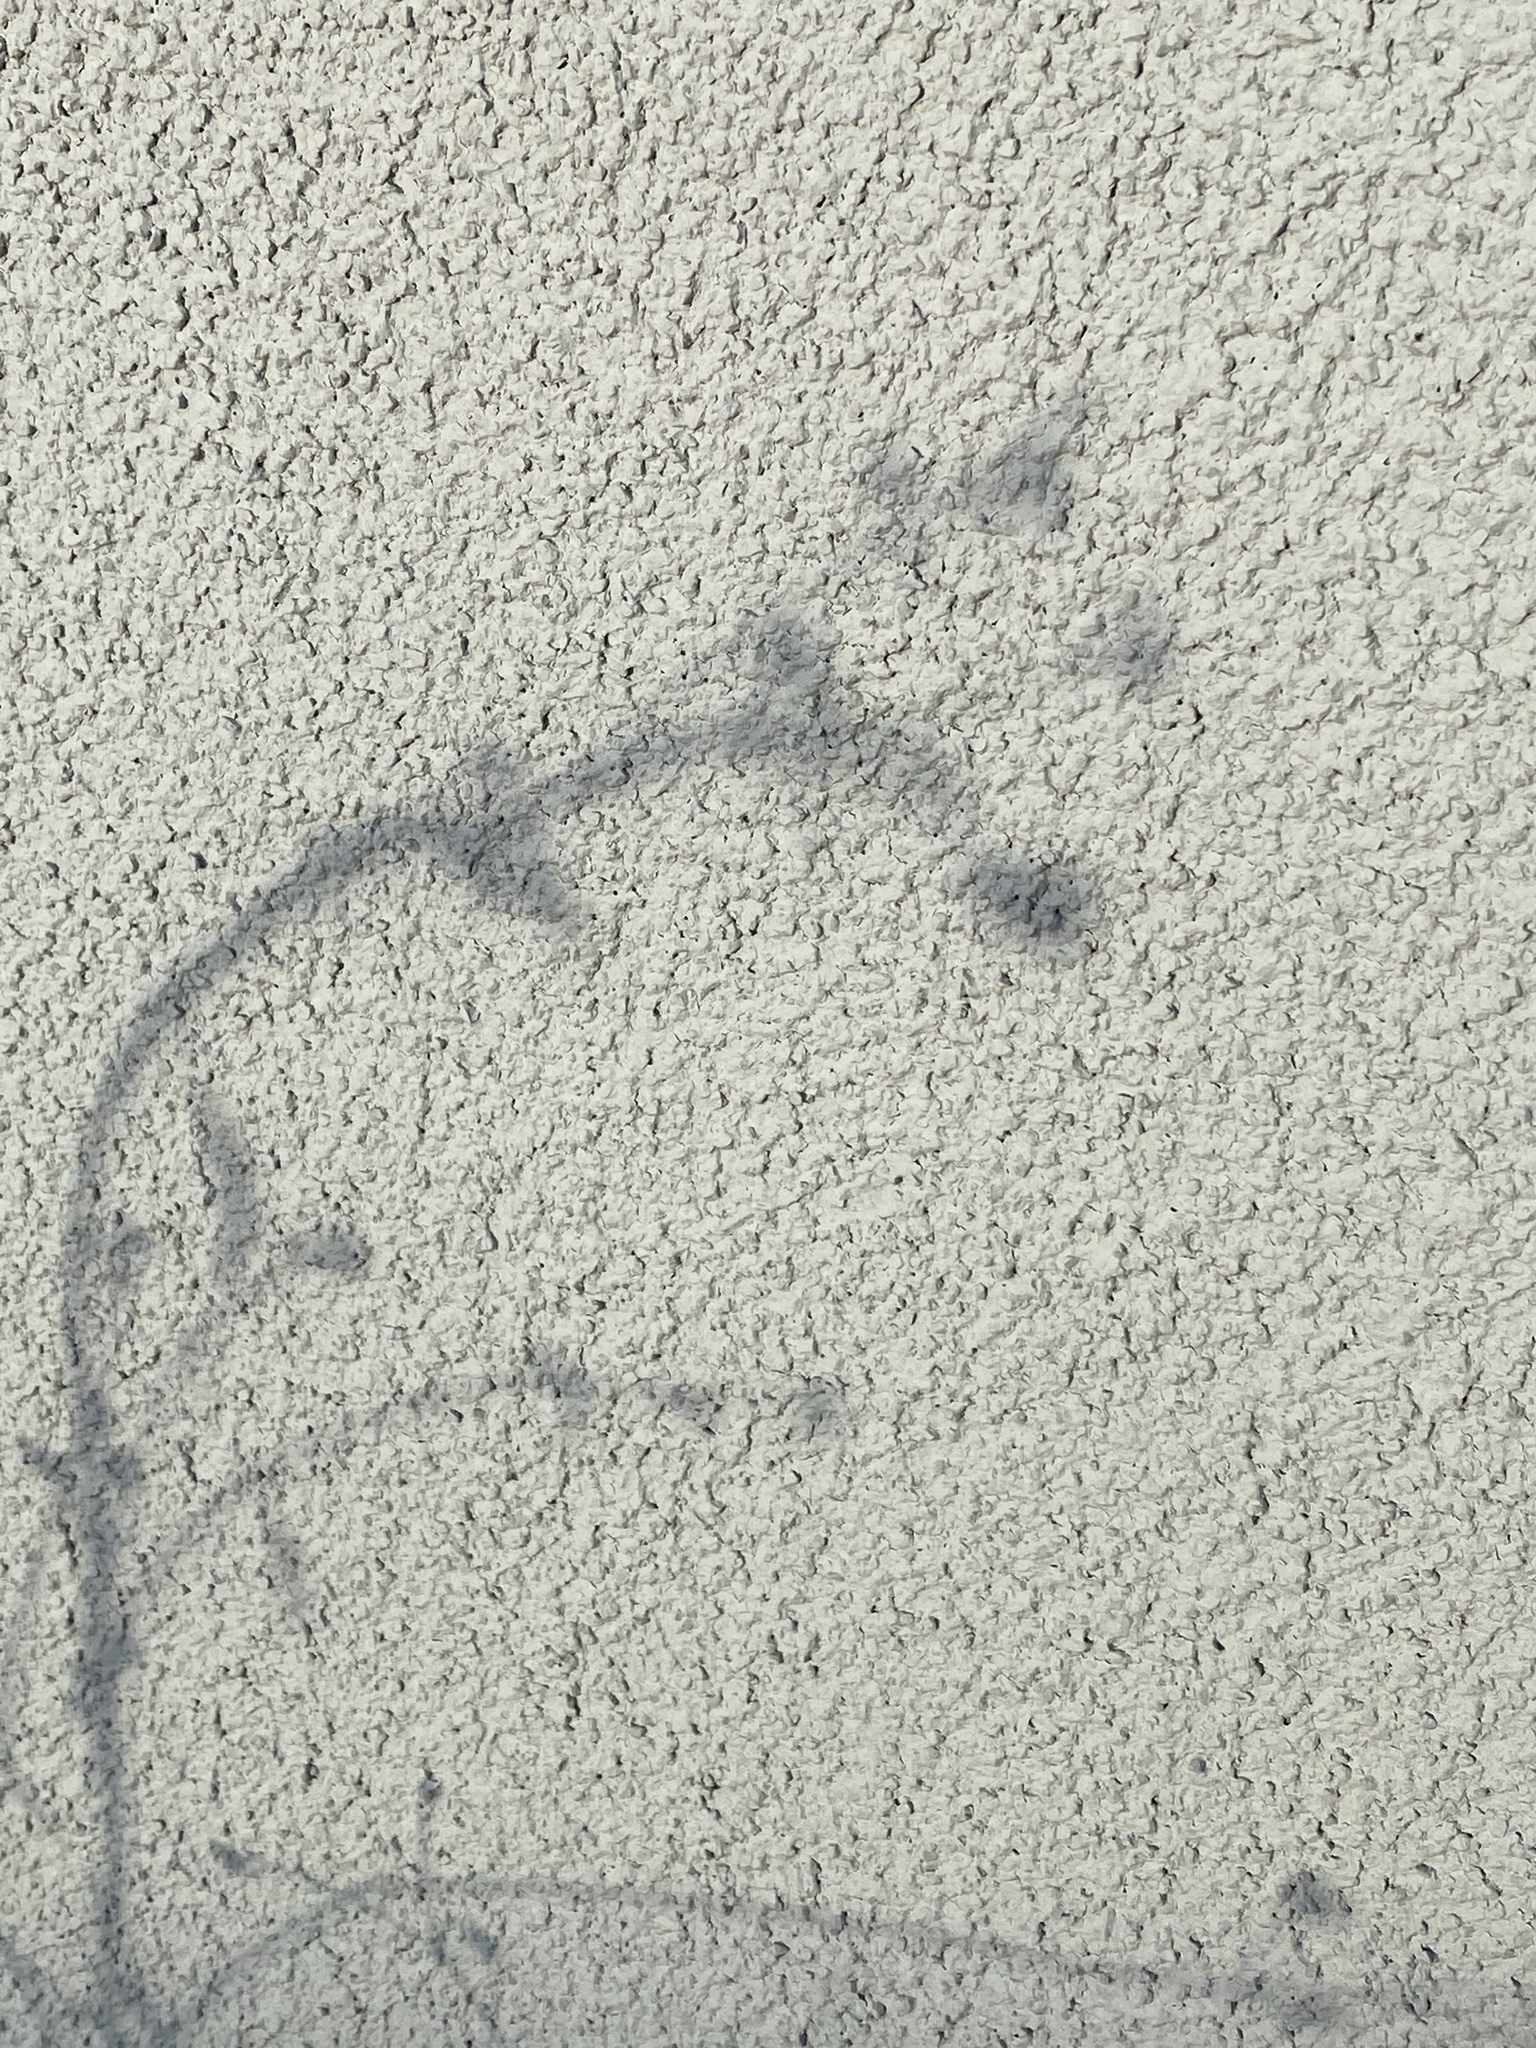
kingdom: Plantae
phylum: Tracheophyta
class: Magnoliopsida
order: Asterales
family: Asteraceae
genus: Bidens
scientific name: Bidens frondosa
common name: Beggarticks
